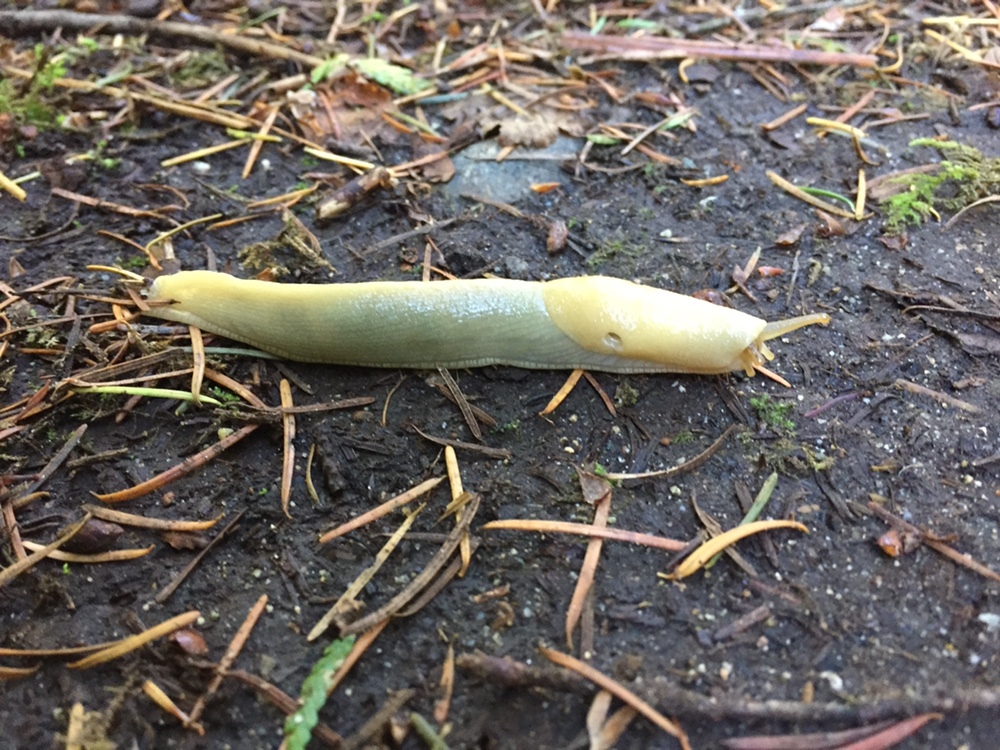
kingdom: Animalia
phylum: Mollusca
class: Gastropoda
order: Stylommatophora
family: Ariolimacidae
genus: Ariolimax
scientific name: Ariolimax columbianus
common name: Pacific banana slug
